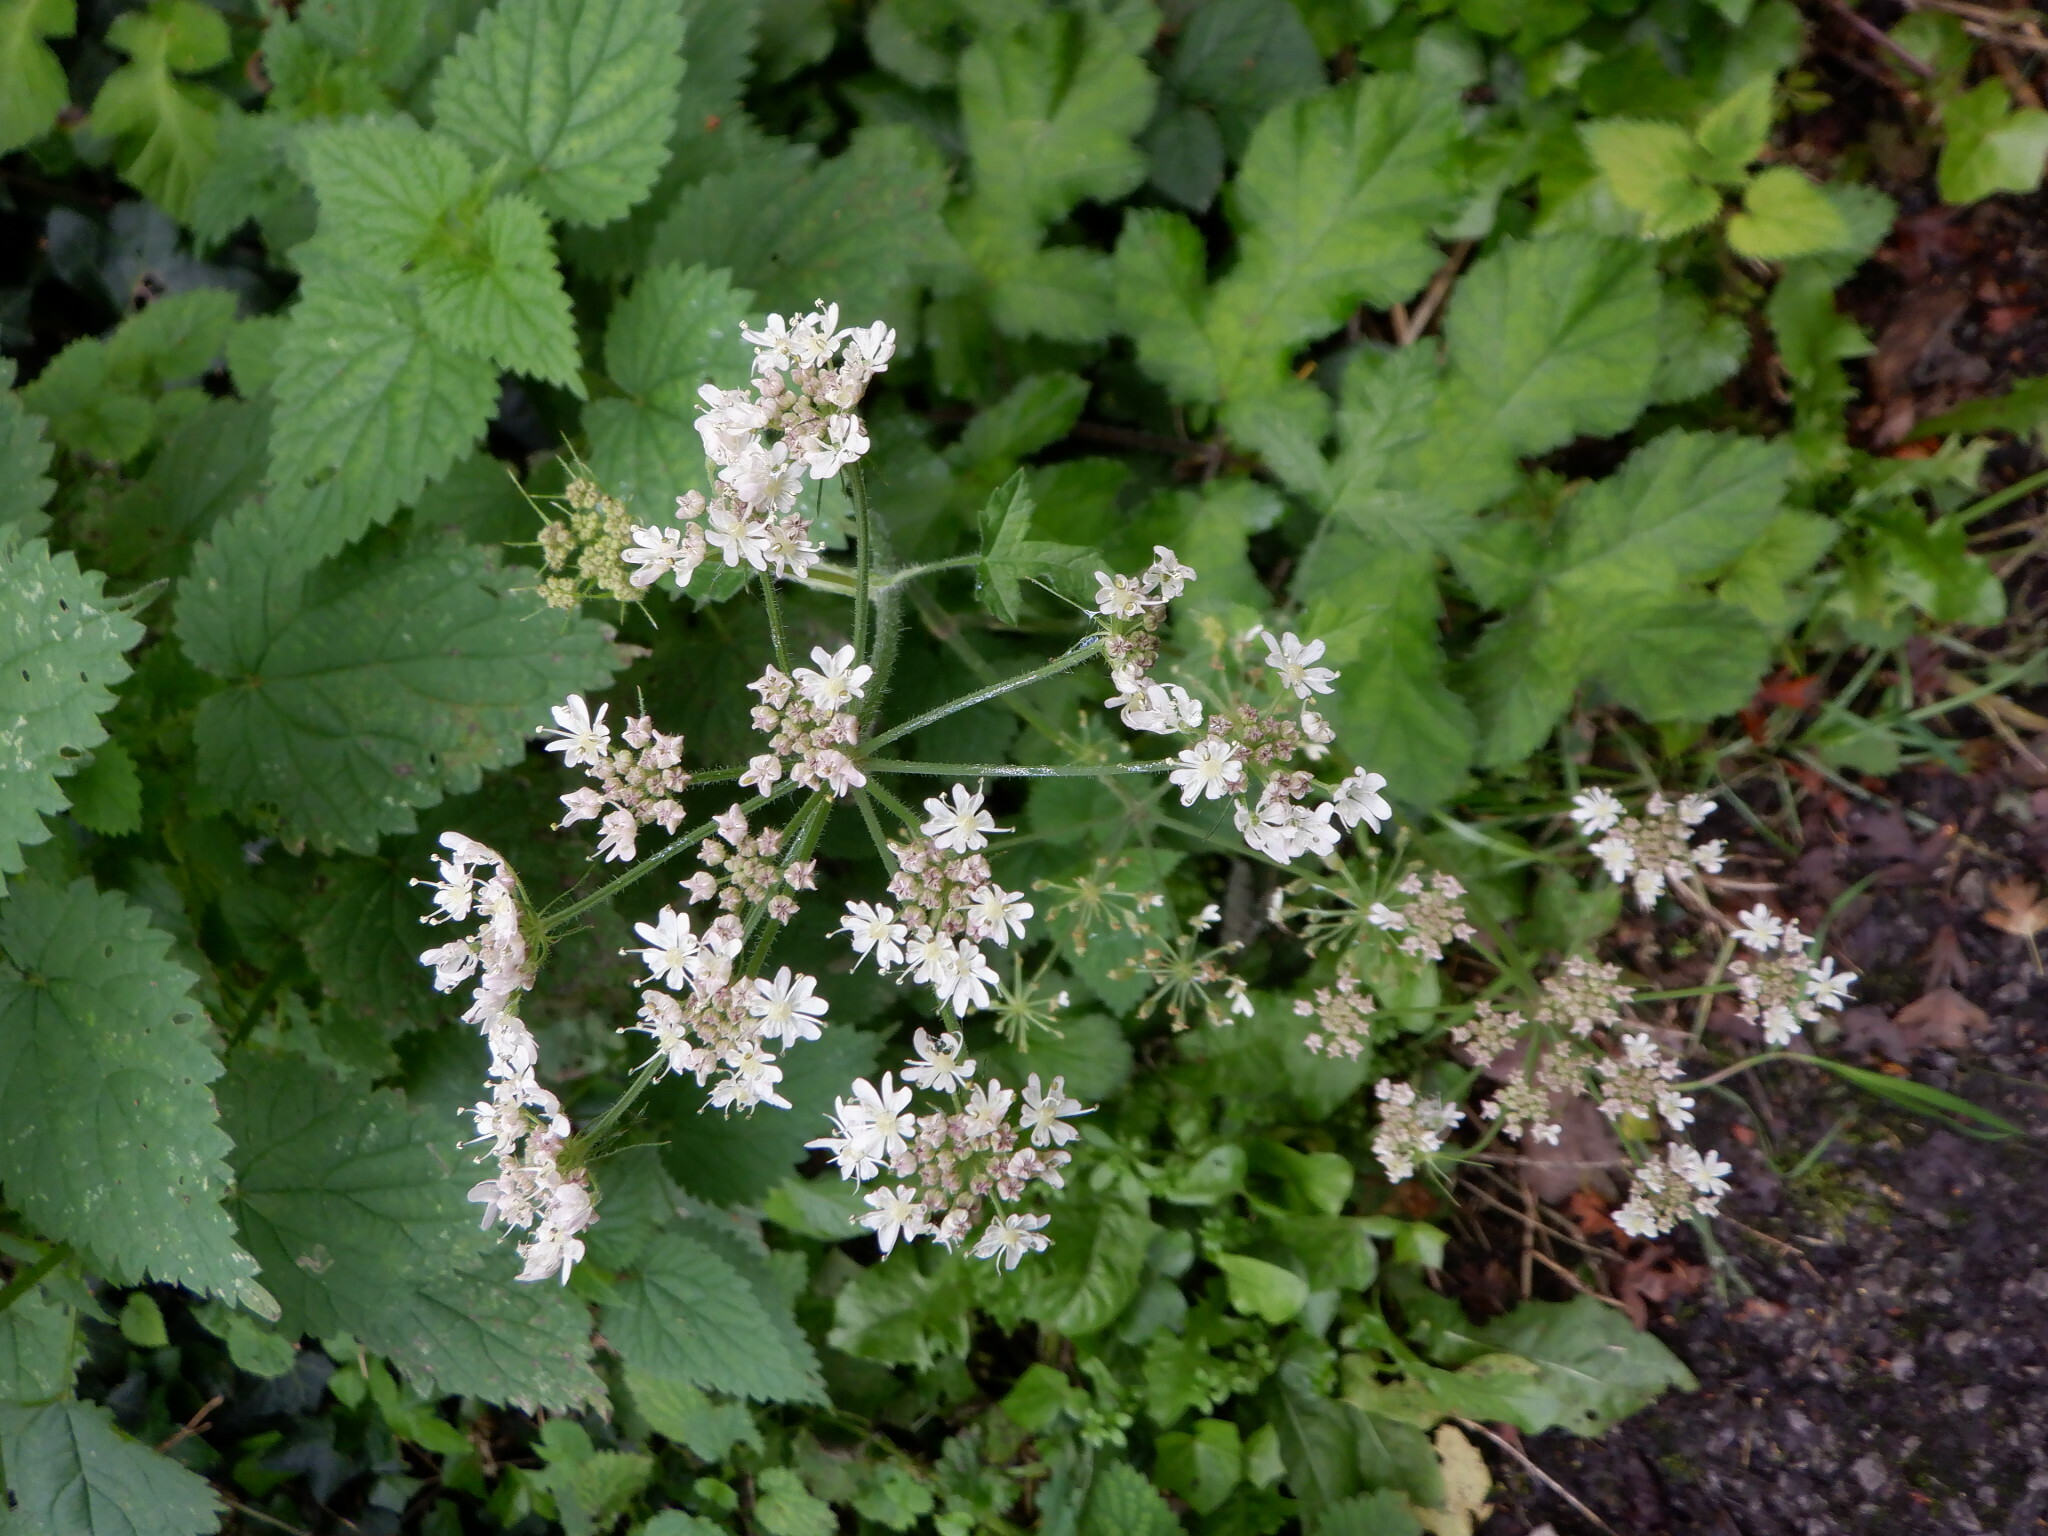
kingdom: Plantae
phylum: Tracheophyta
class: Magnoliopsida
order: Apiales
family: Apiaceae
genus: Heracleum
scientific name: Heracleum sphondylium
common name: Hogweed
